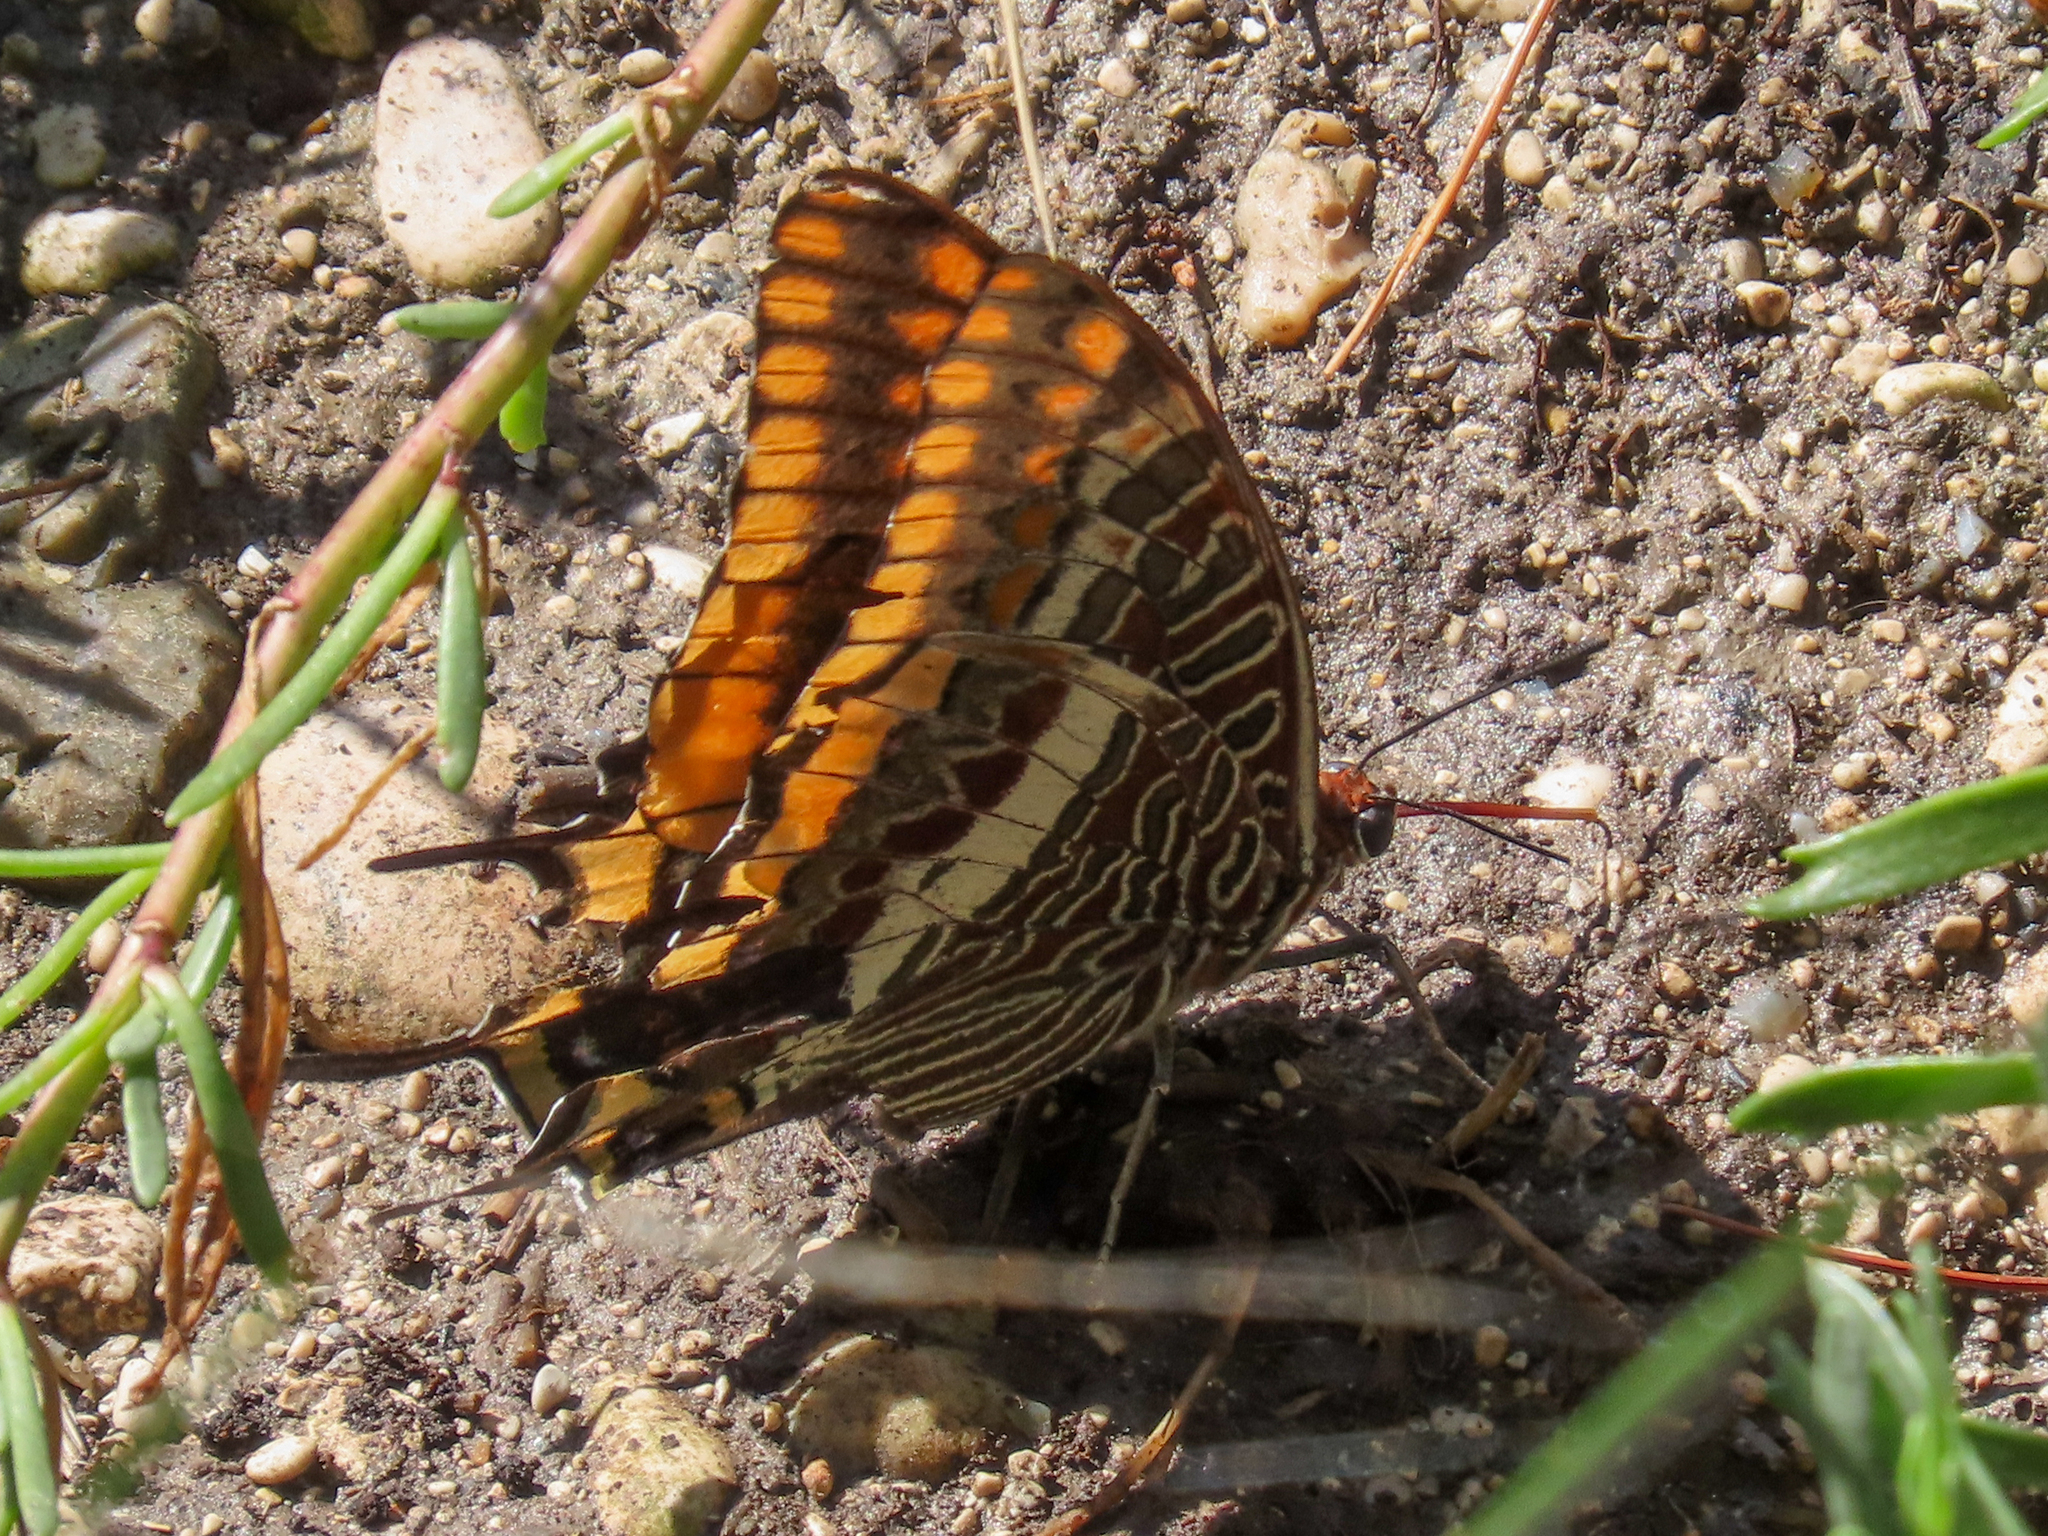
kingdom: Animalia
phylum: Arthropoda
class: Insecta
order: Lepidoptera
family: Nymphalidae
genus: Charaxes
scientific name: Charaxes jasius
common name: Two tailed pasha
